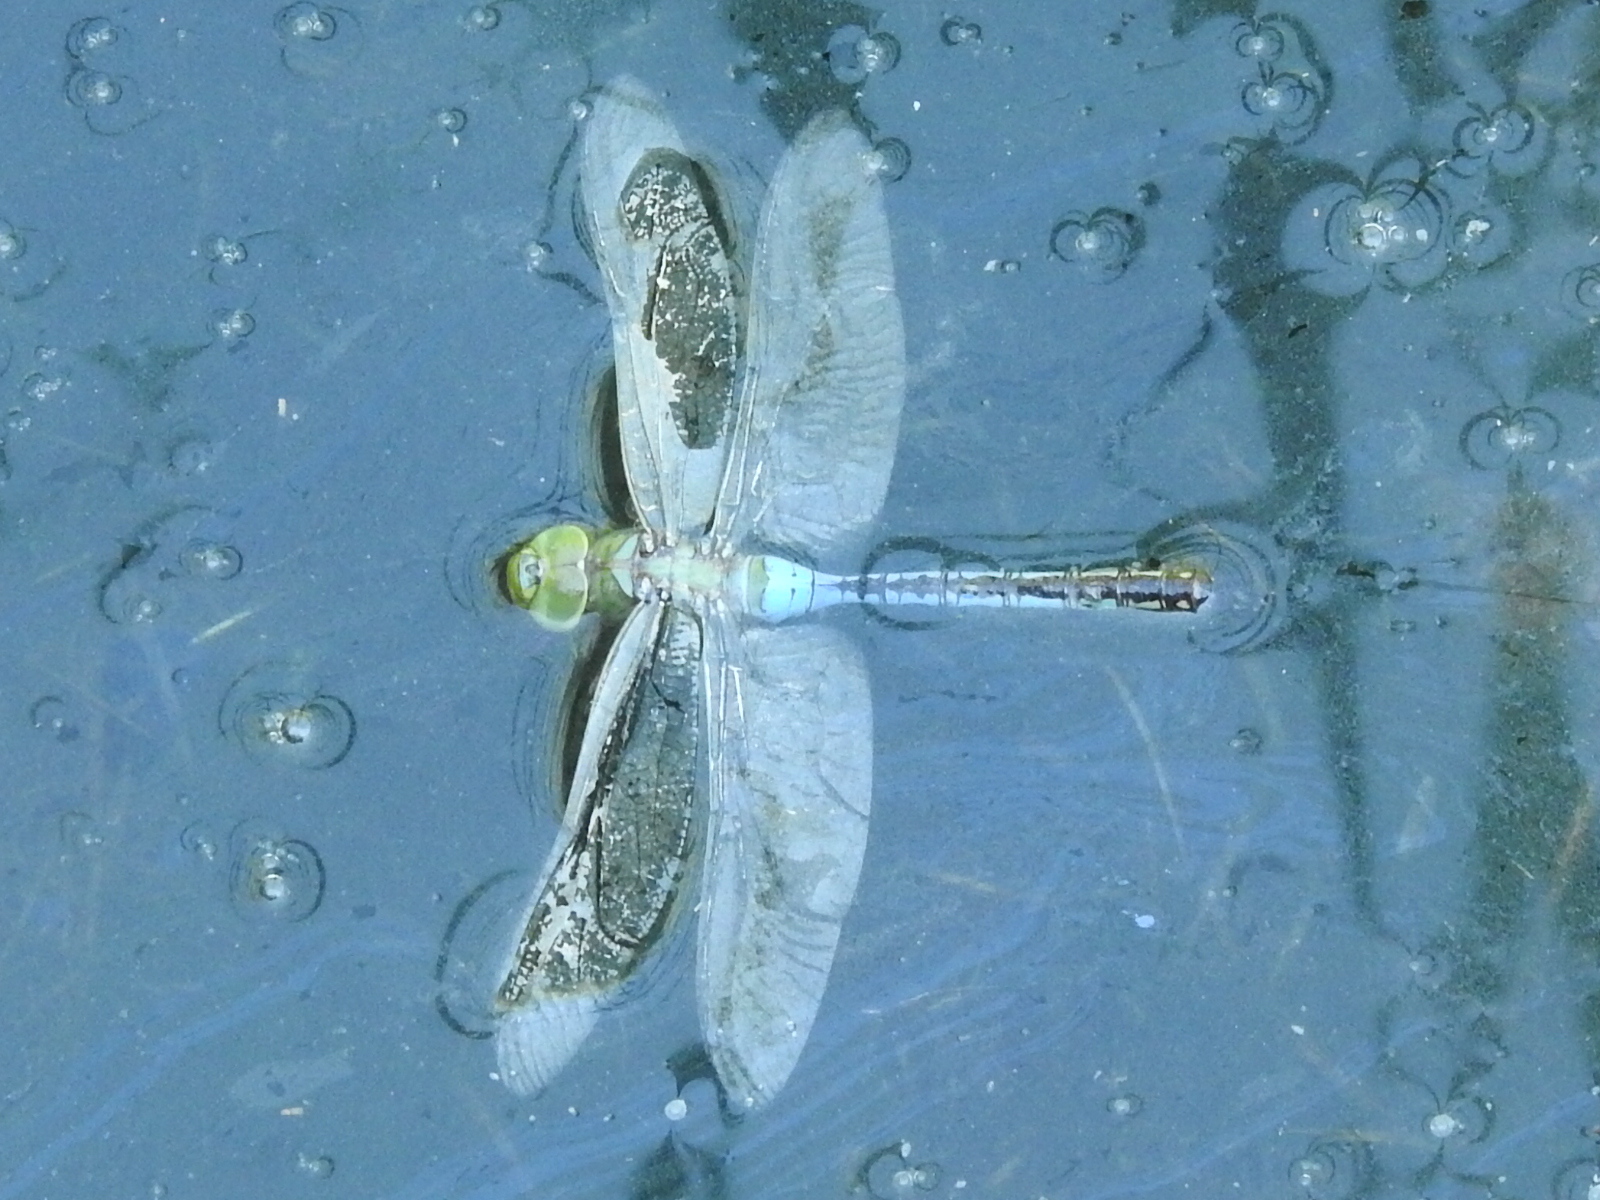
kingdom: Animalia
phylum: Arthropoda
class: Insecta
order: Odonata
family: Aeshnidae
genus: Anax
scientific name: Anax junius
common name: Common green darner
